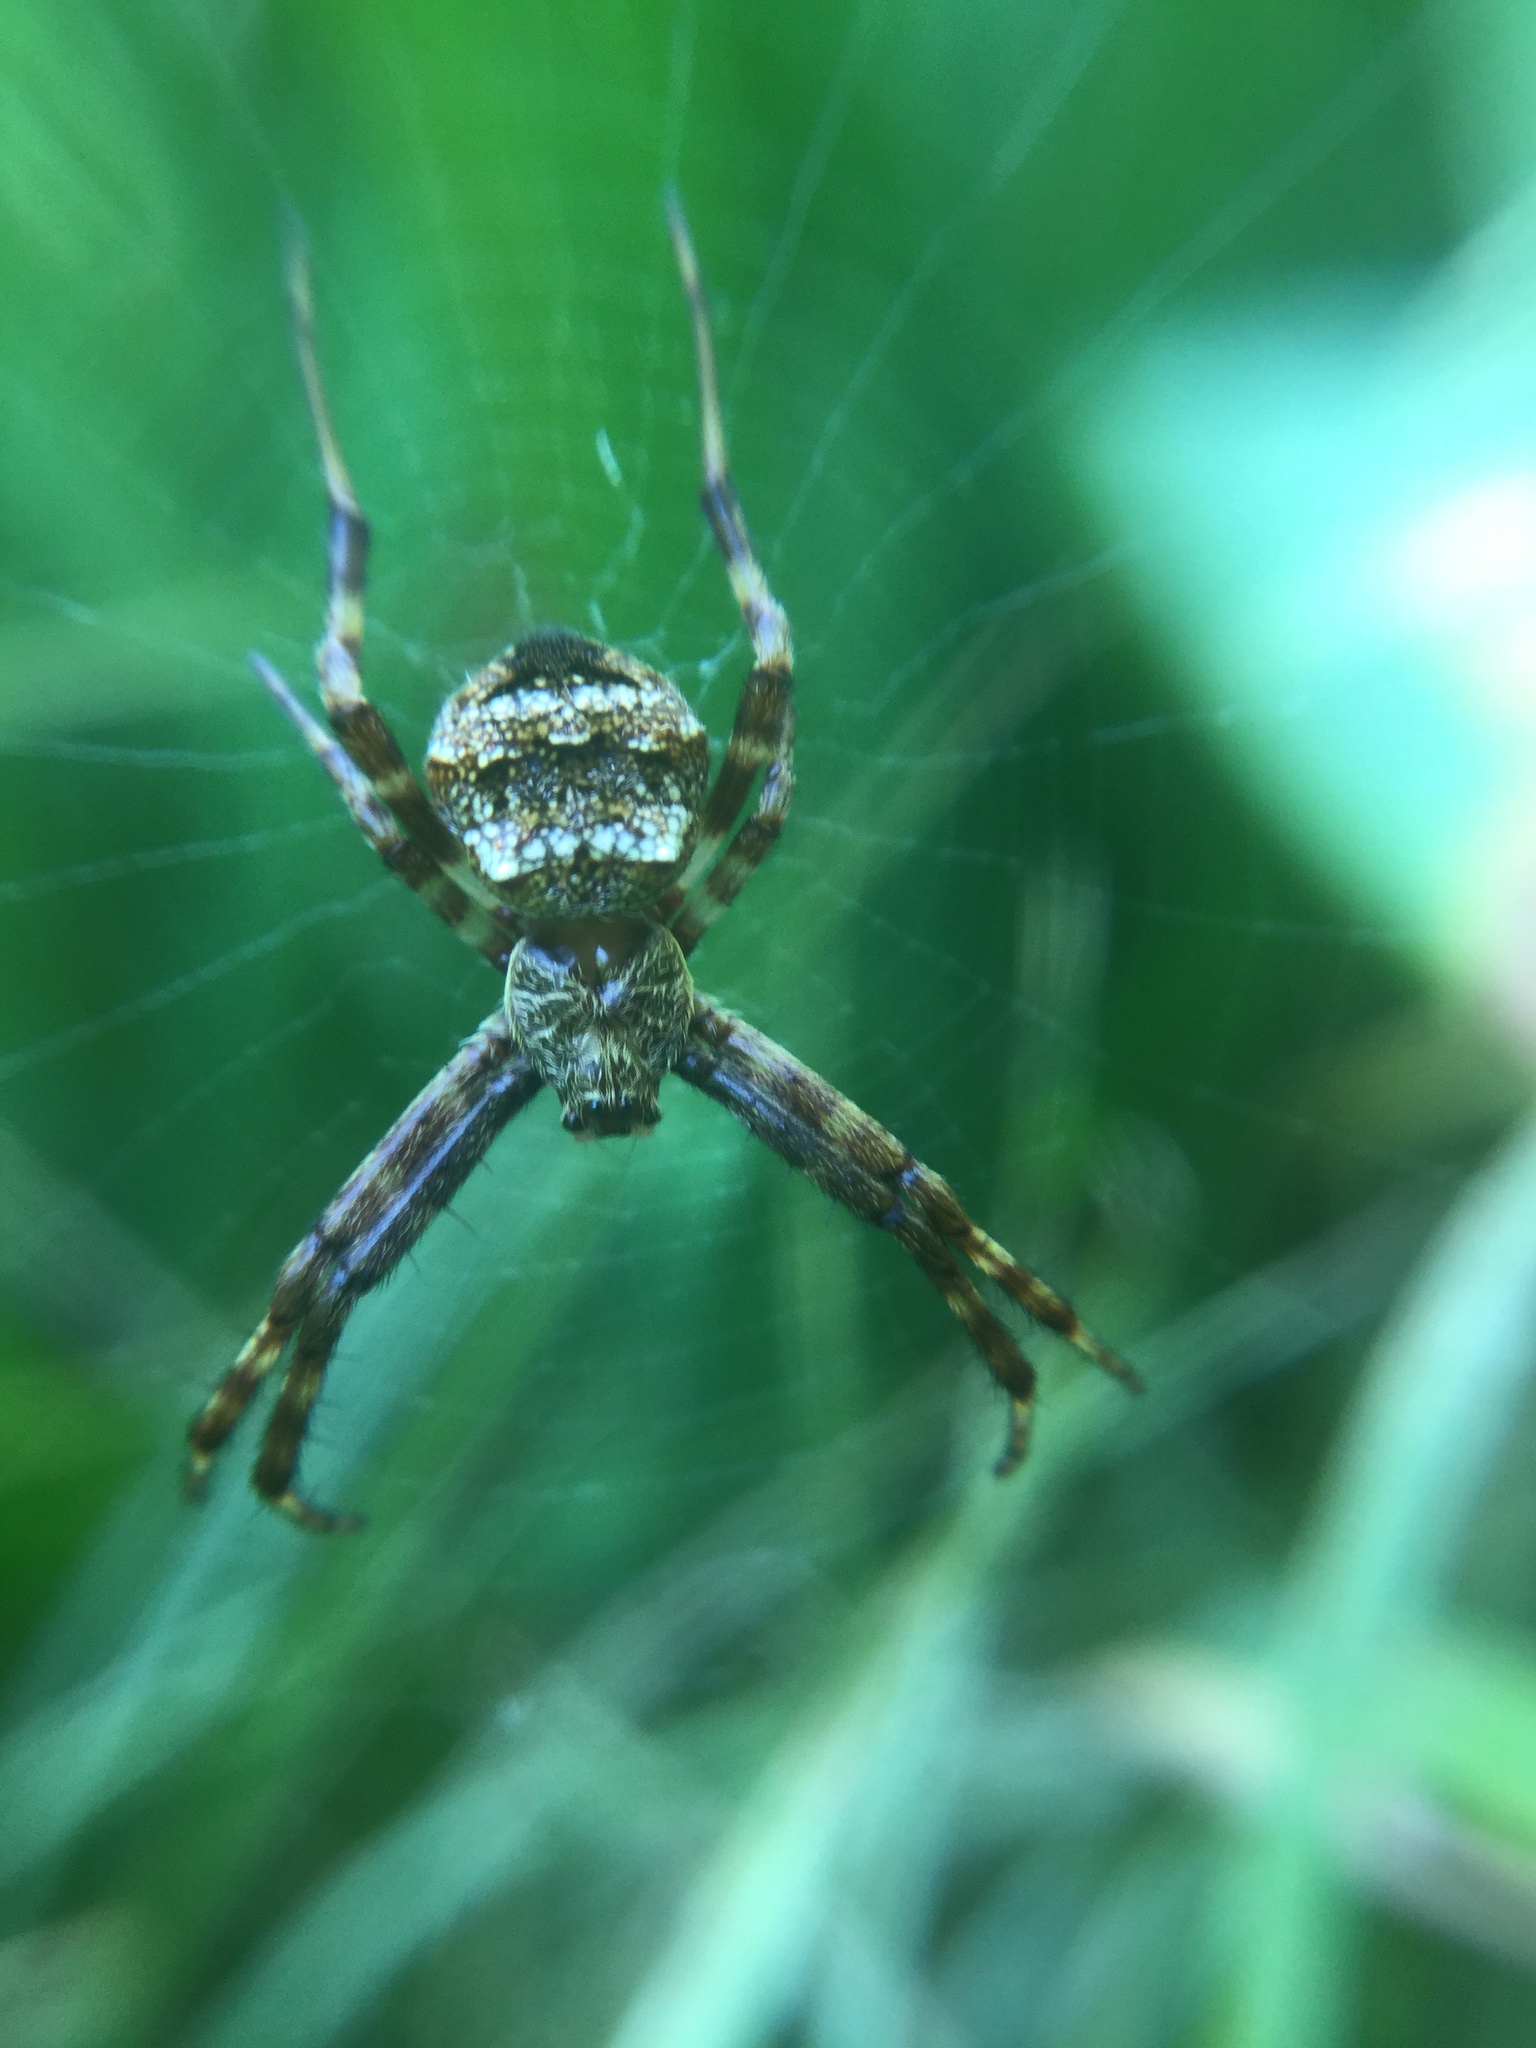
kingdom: Animalia
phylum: Arthropoda
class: Arachnida
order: Araneae
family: Araneidae
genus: Gea
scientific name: Gea heptagon
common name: Orb weavers
